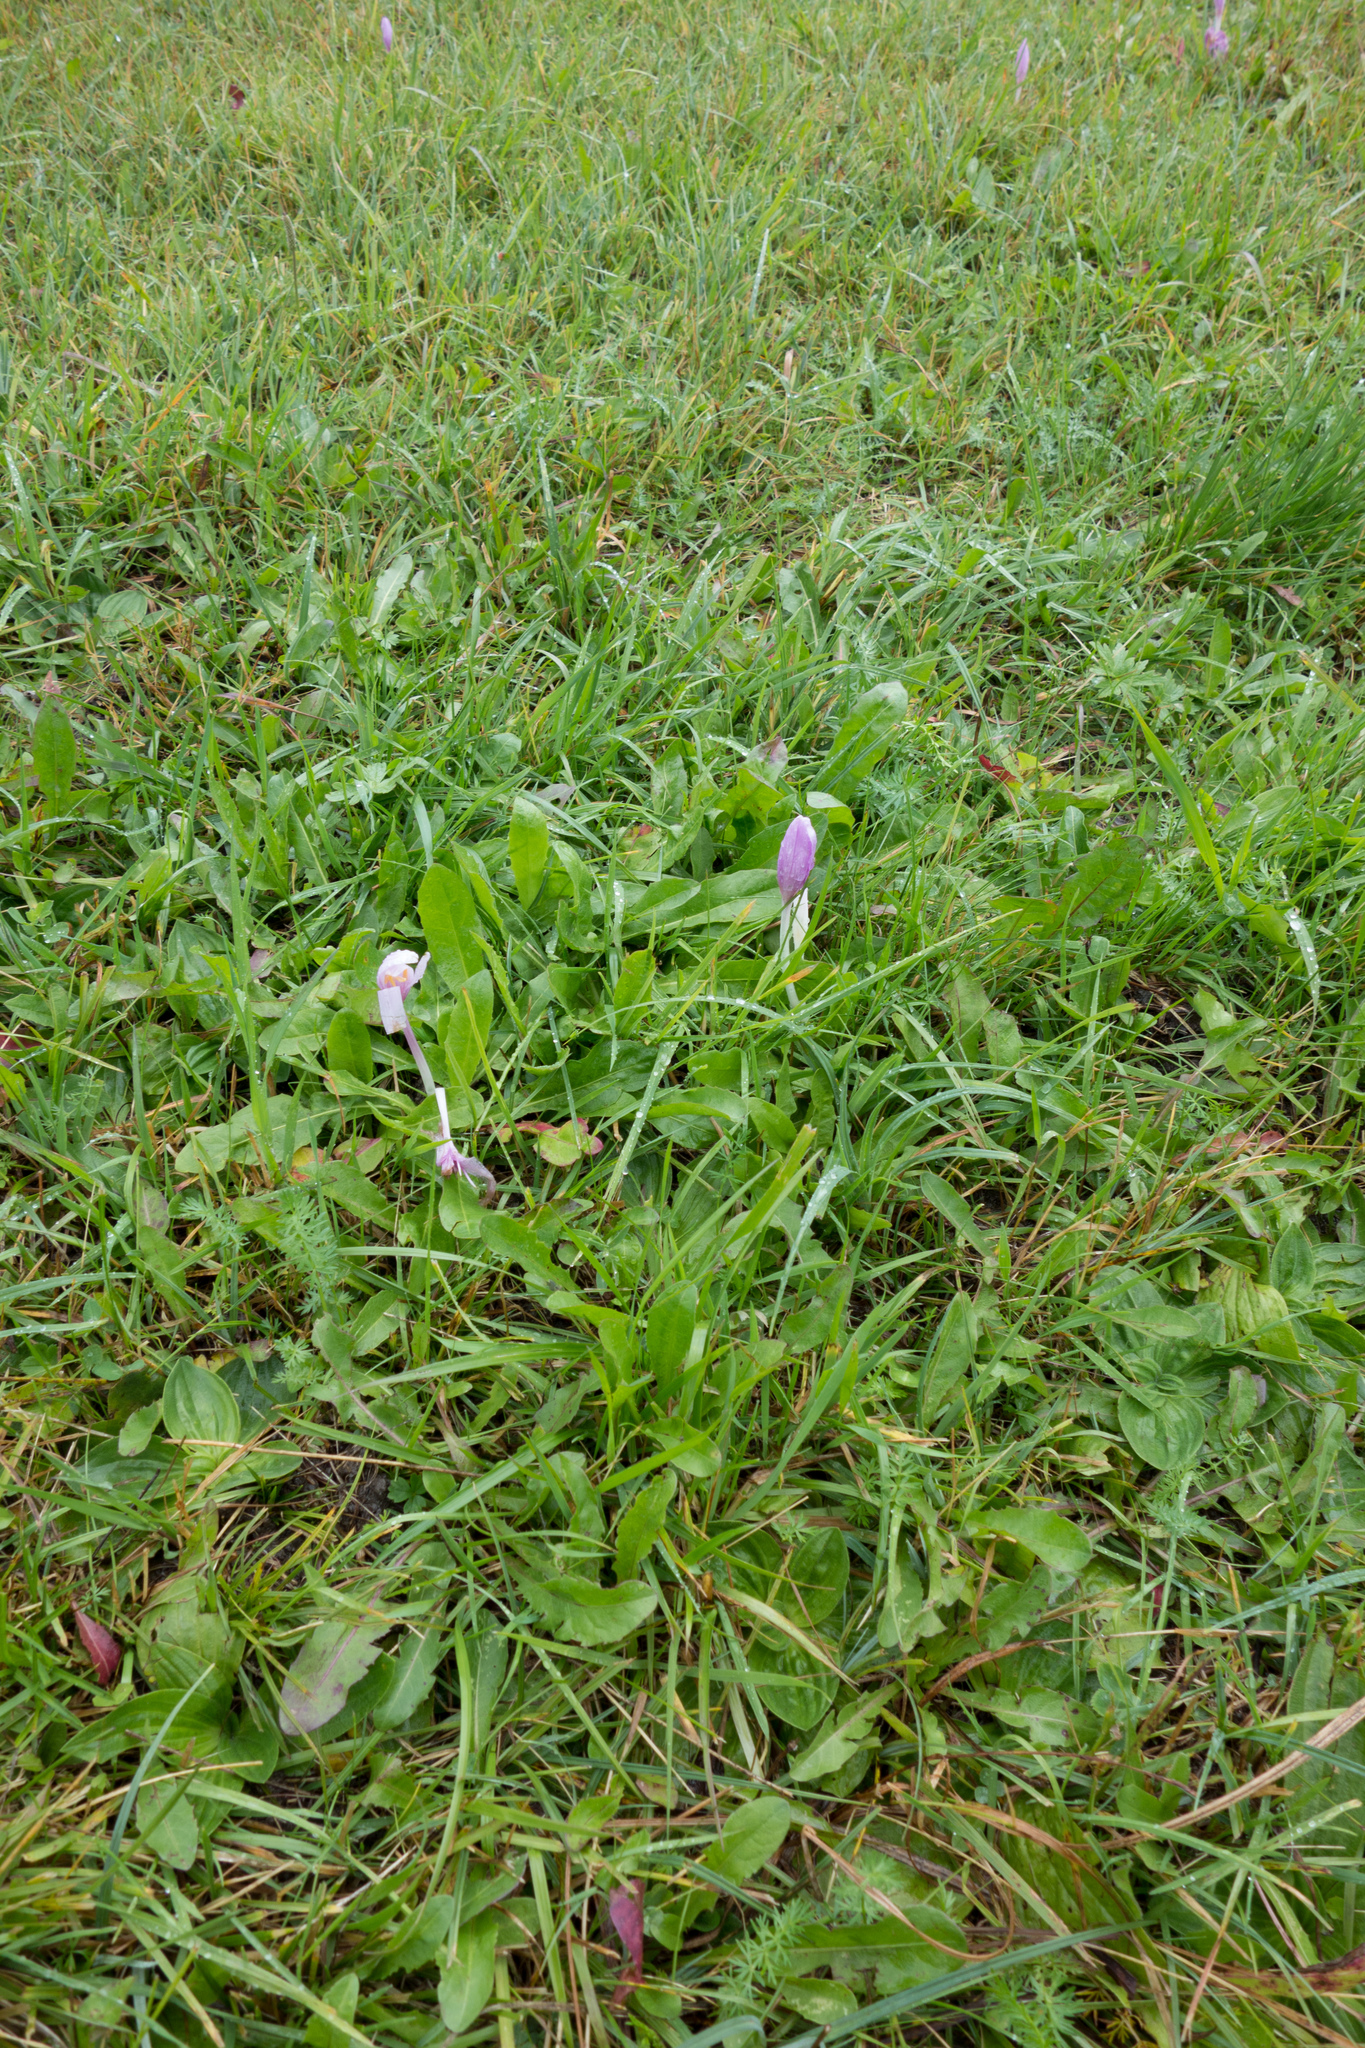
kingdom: Plantae
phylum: Tracheophyta
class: Liliopsida
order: Liliales
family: Colchicaceae
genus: Colchicum
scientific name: Colchicum autumnale
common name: Autumn crocus
